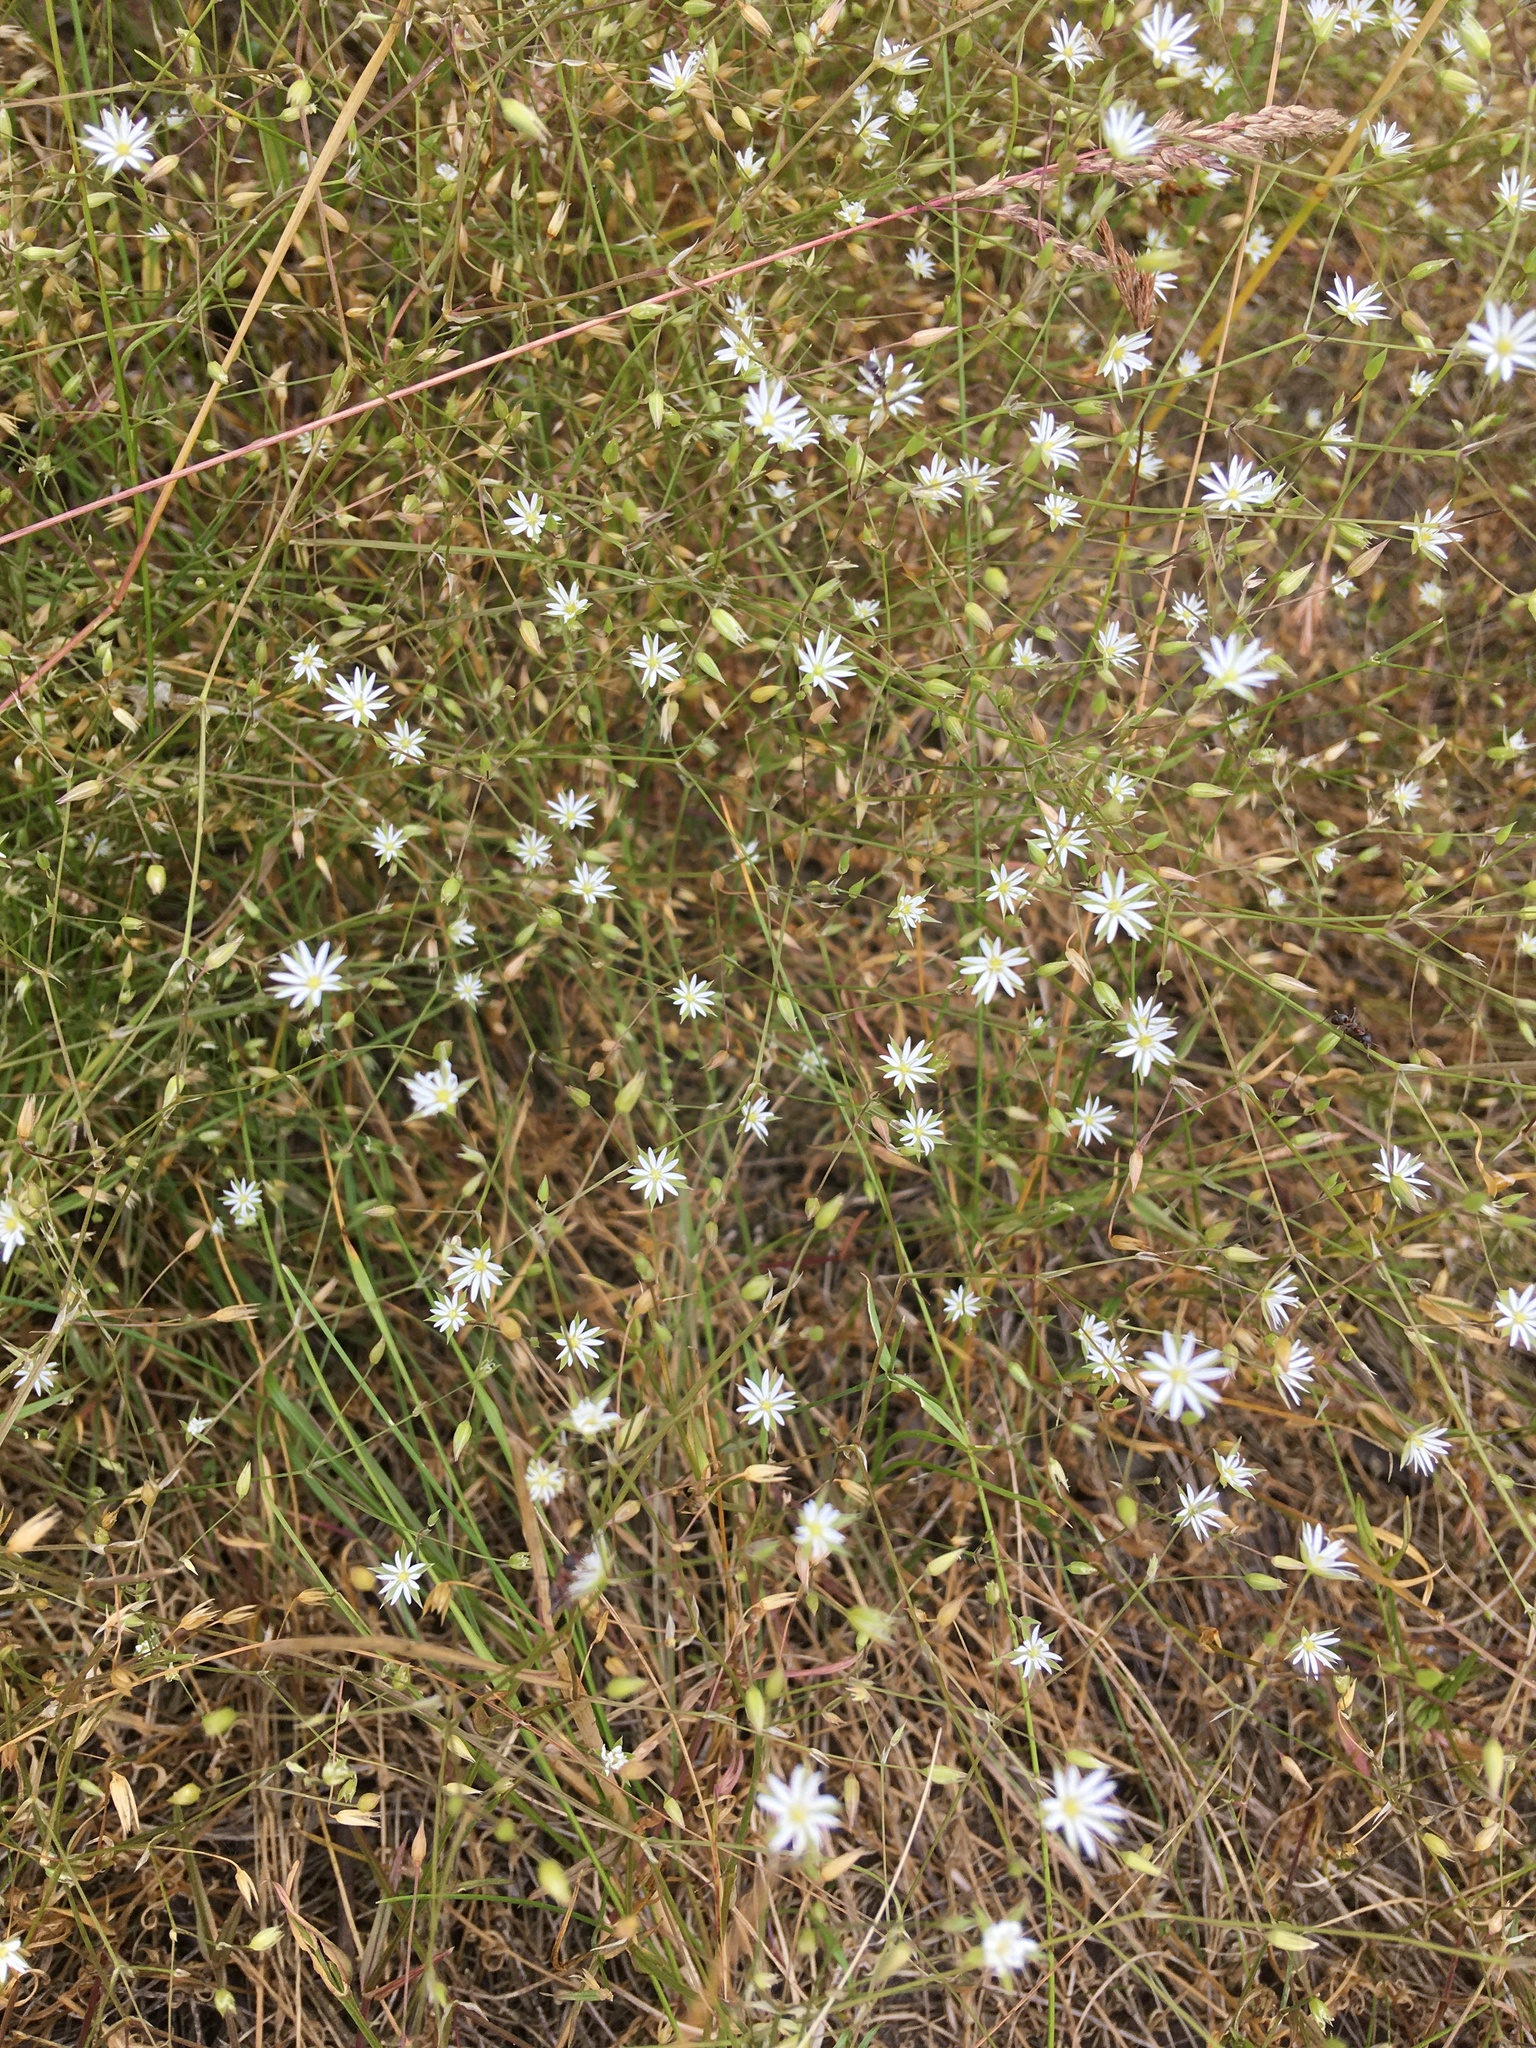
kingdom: Plantae
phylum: Tracheophyta
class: Magnoliopsida
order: Caryophyllales
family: Caryophyllaceae
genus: Stellaria
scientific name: Stellaria graminea
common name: Grass-like starwort
